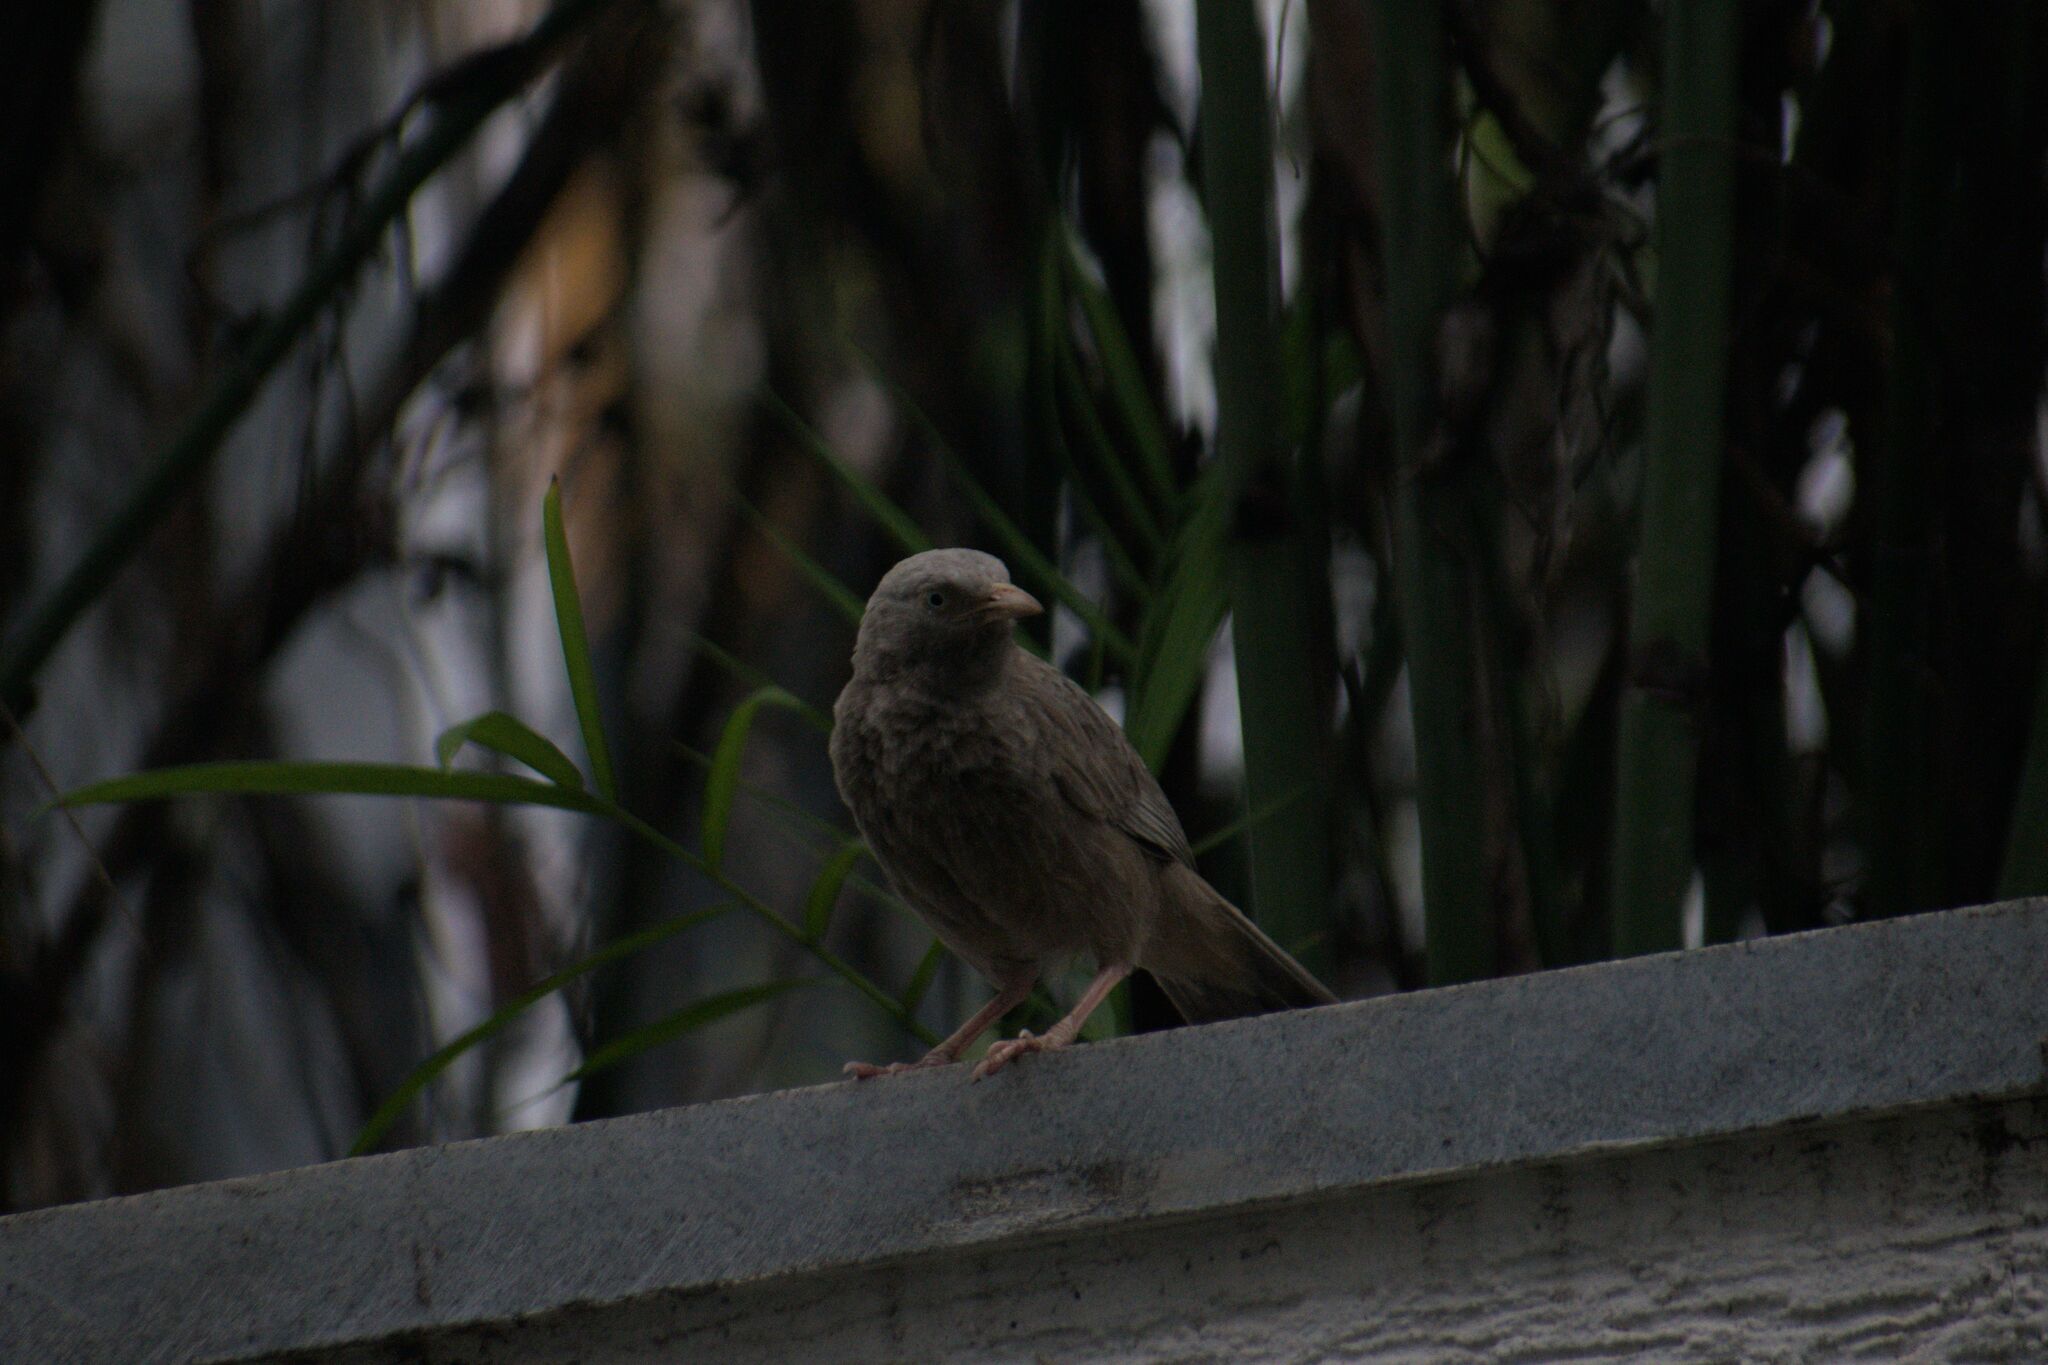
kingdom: Animalia
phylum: Chordata
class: Aves
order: Passeriformes
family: Leiothrichidae
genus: Turdoides
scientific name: Turdoides affinis
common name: Yellow-billed babbler
